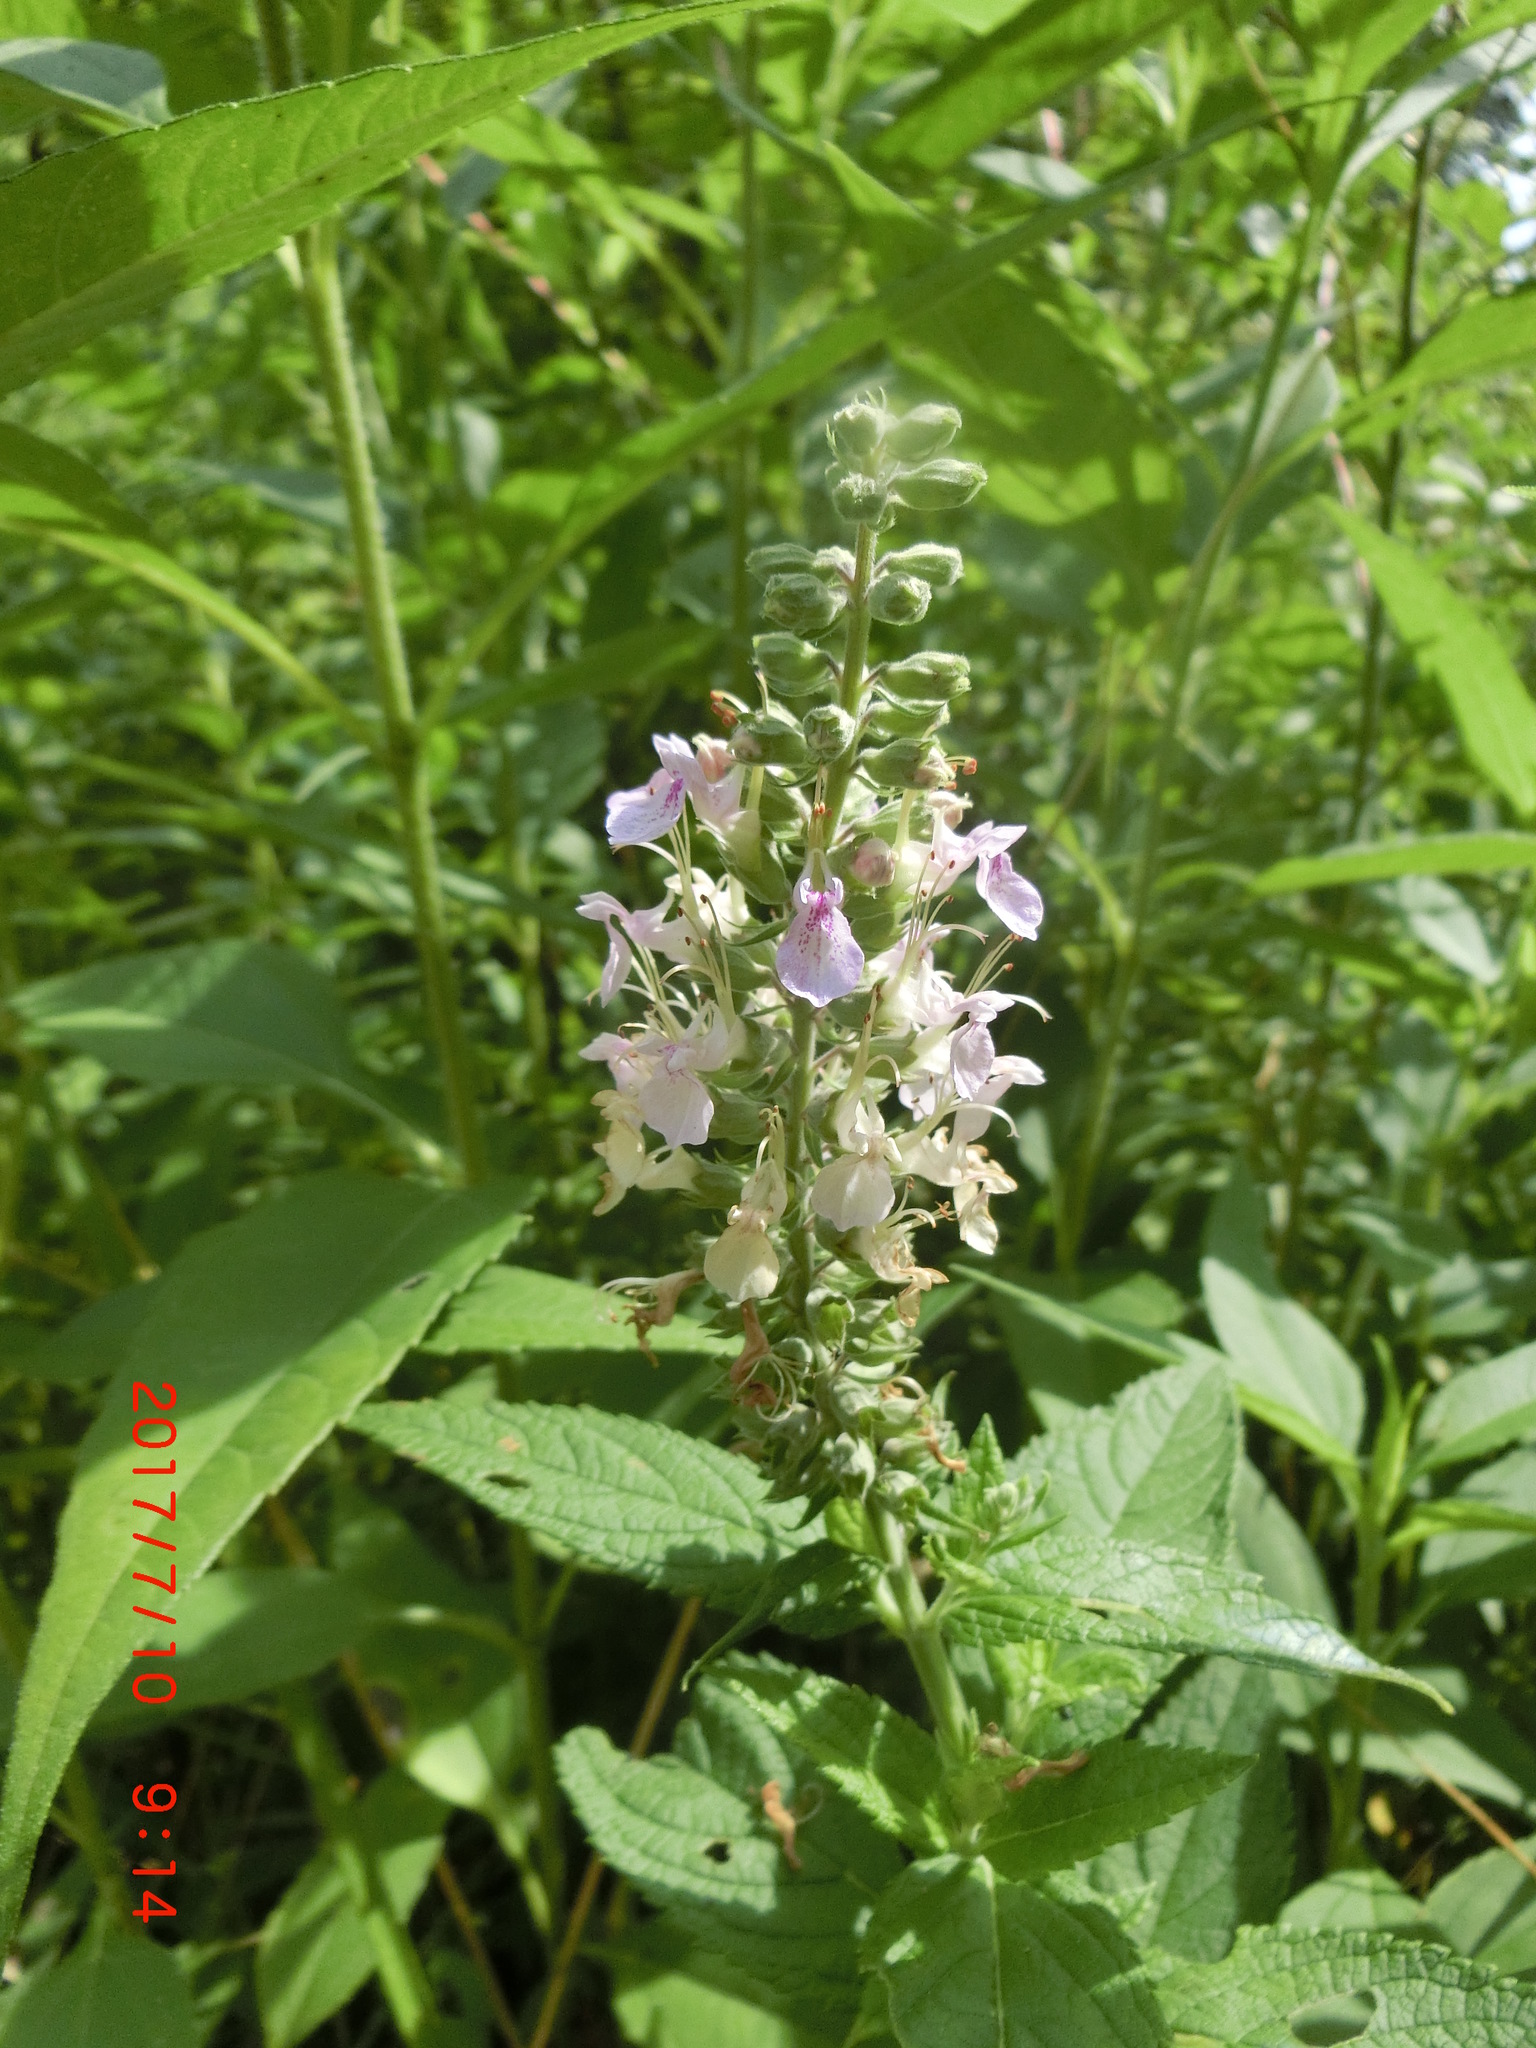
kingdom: Plantae
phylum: Tracheophyta
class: Magnoliopsida
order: Lamiales
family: Lamiaceae
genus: Teucrium
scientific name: Teucrium canadense
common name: American germander
